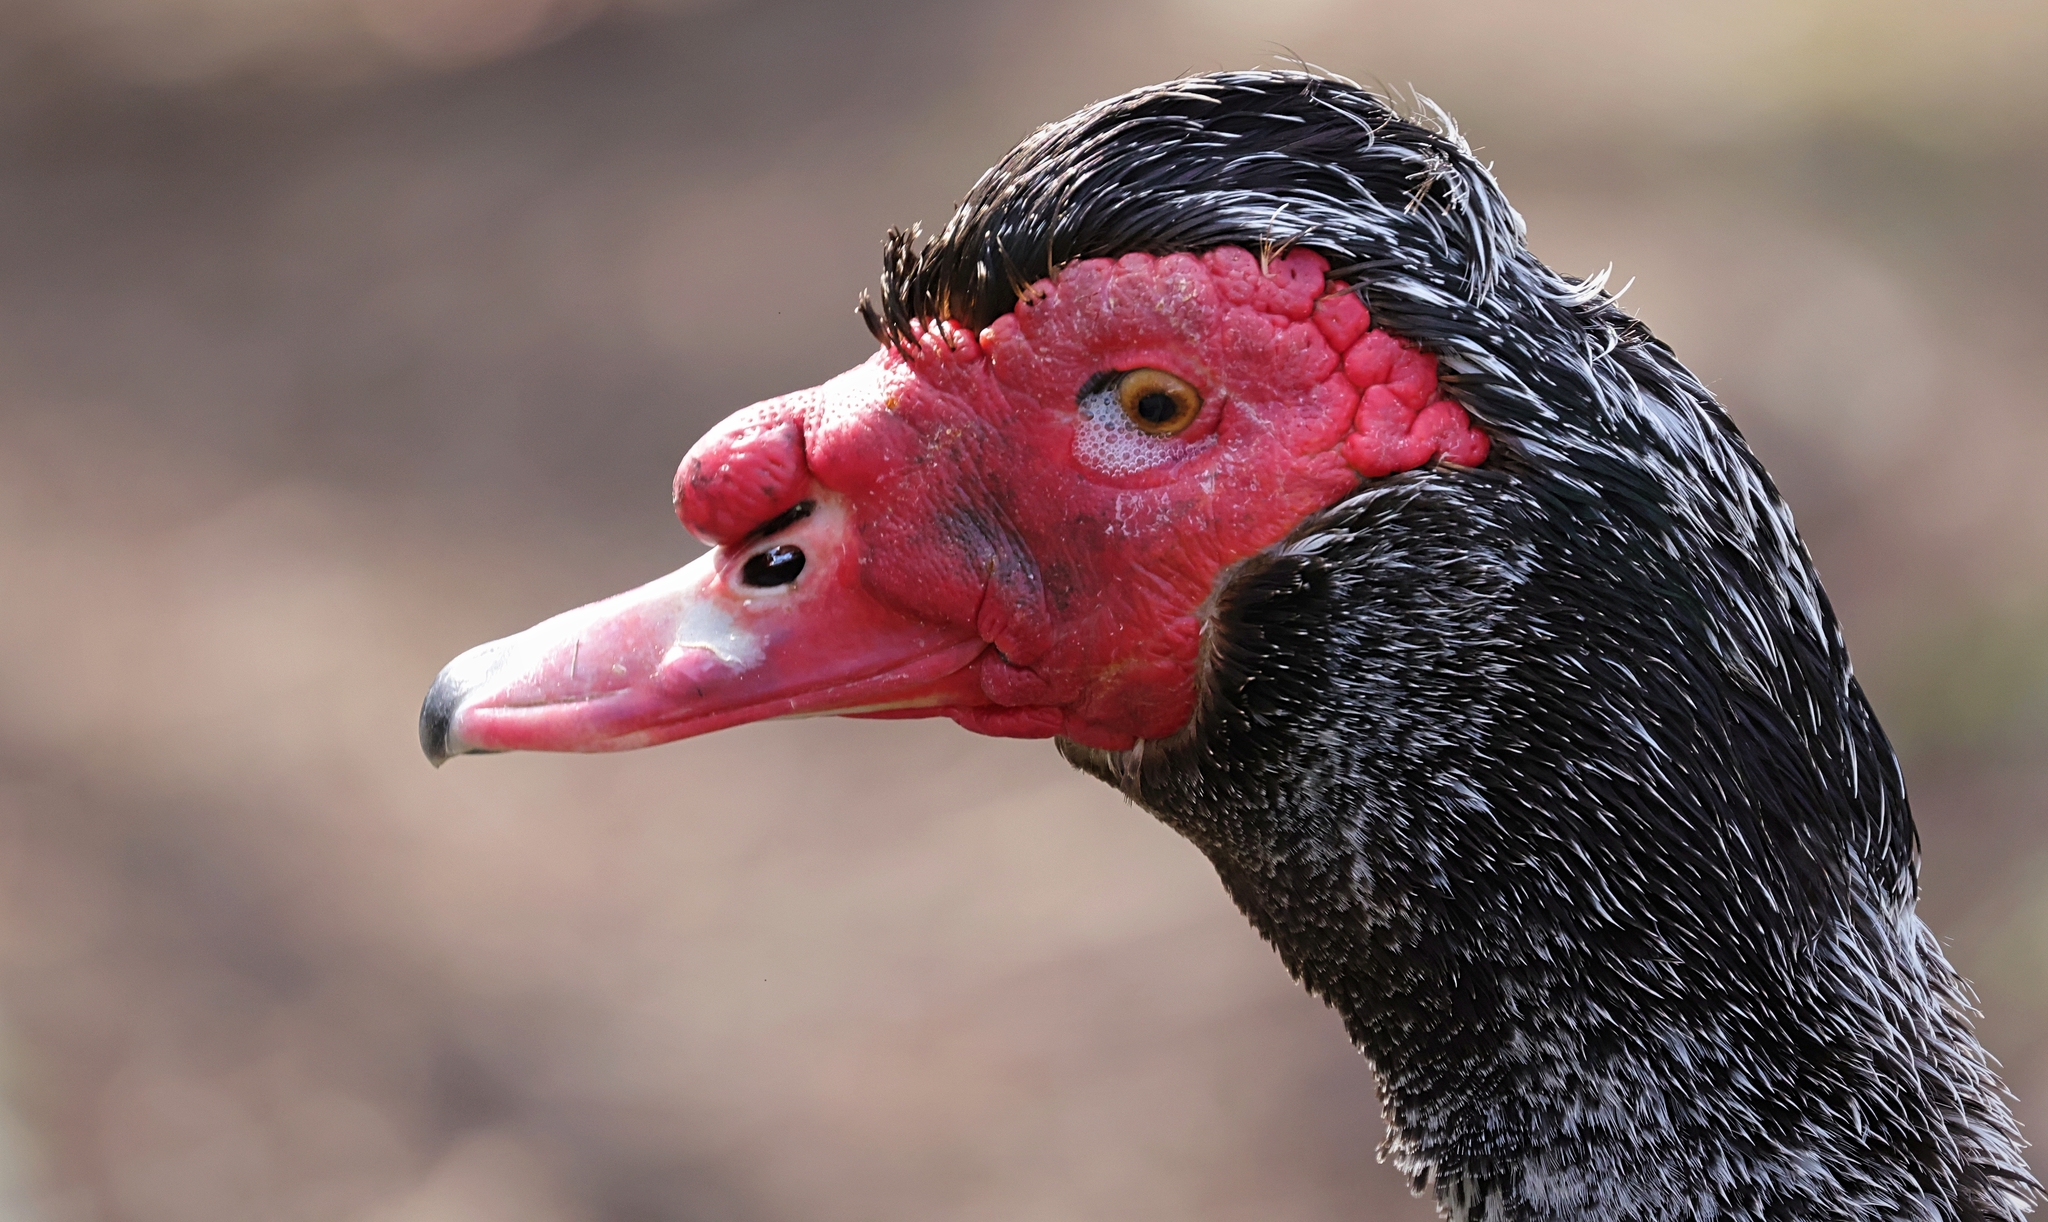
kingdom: Animalia
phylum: Chordata
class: Aves
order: Anseriformes
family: Anatidae
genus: Cairina
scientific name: Cairina moschata
